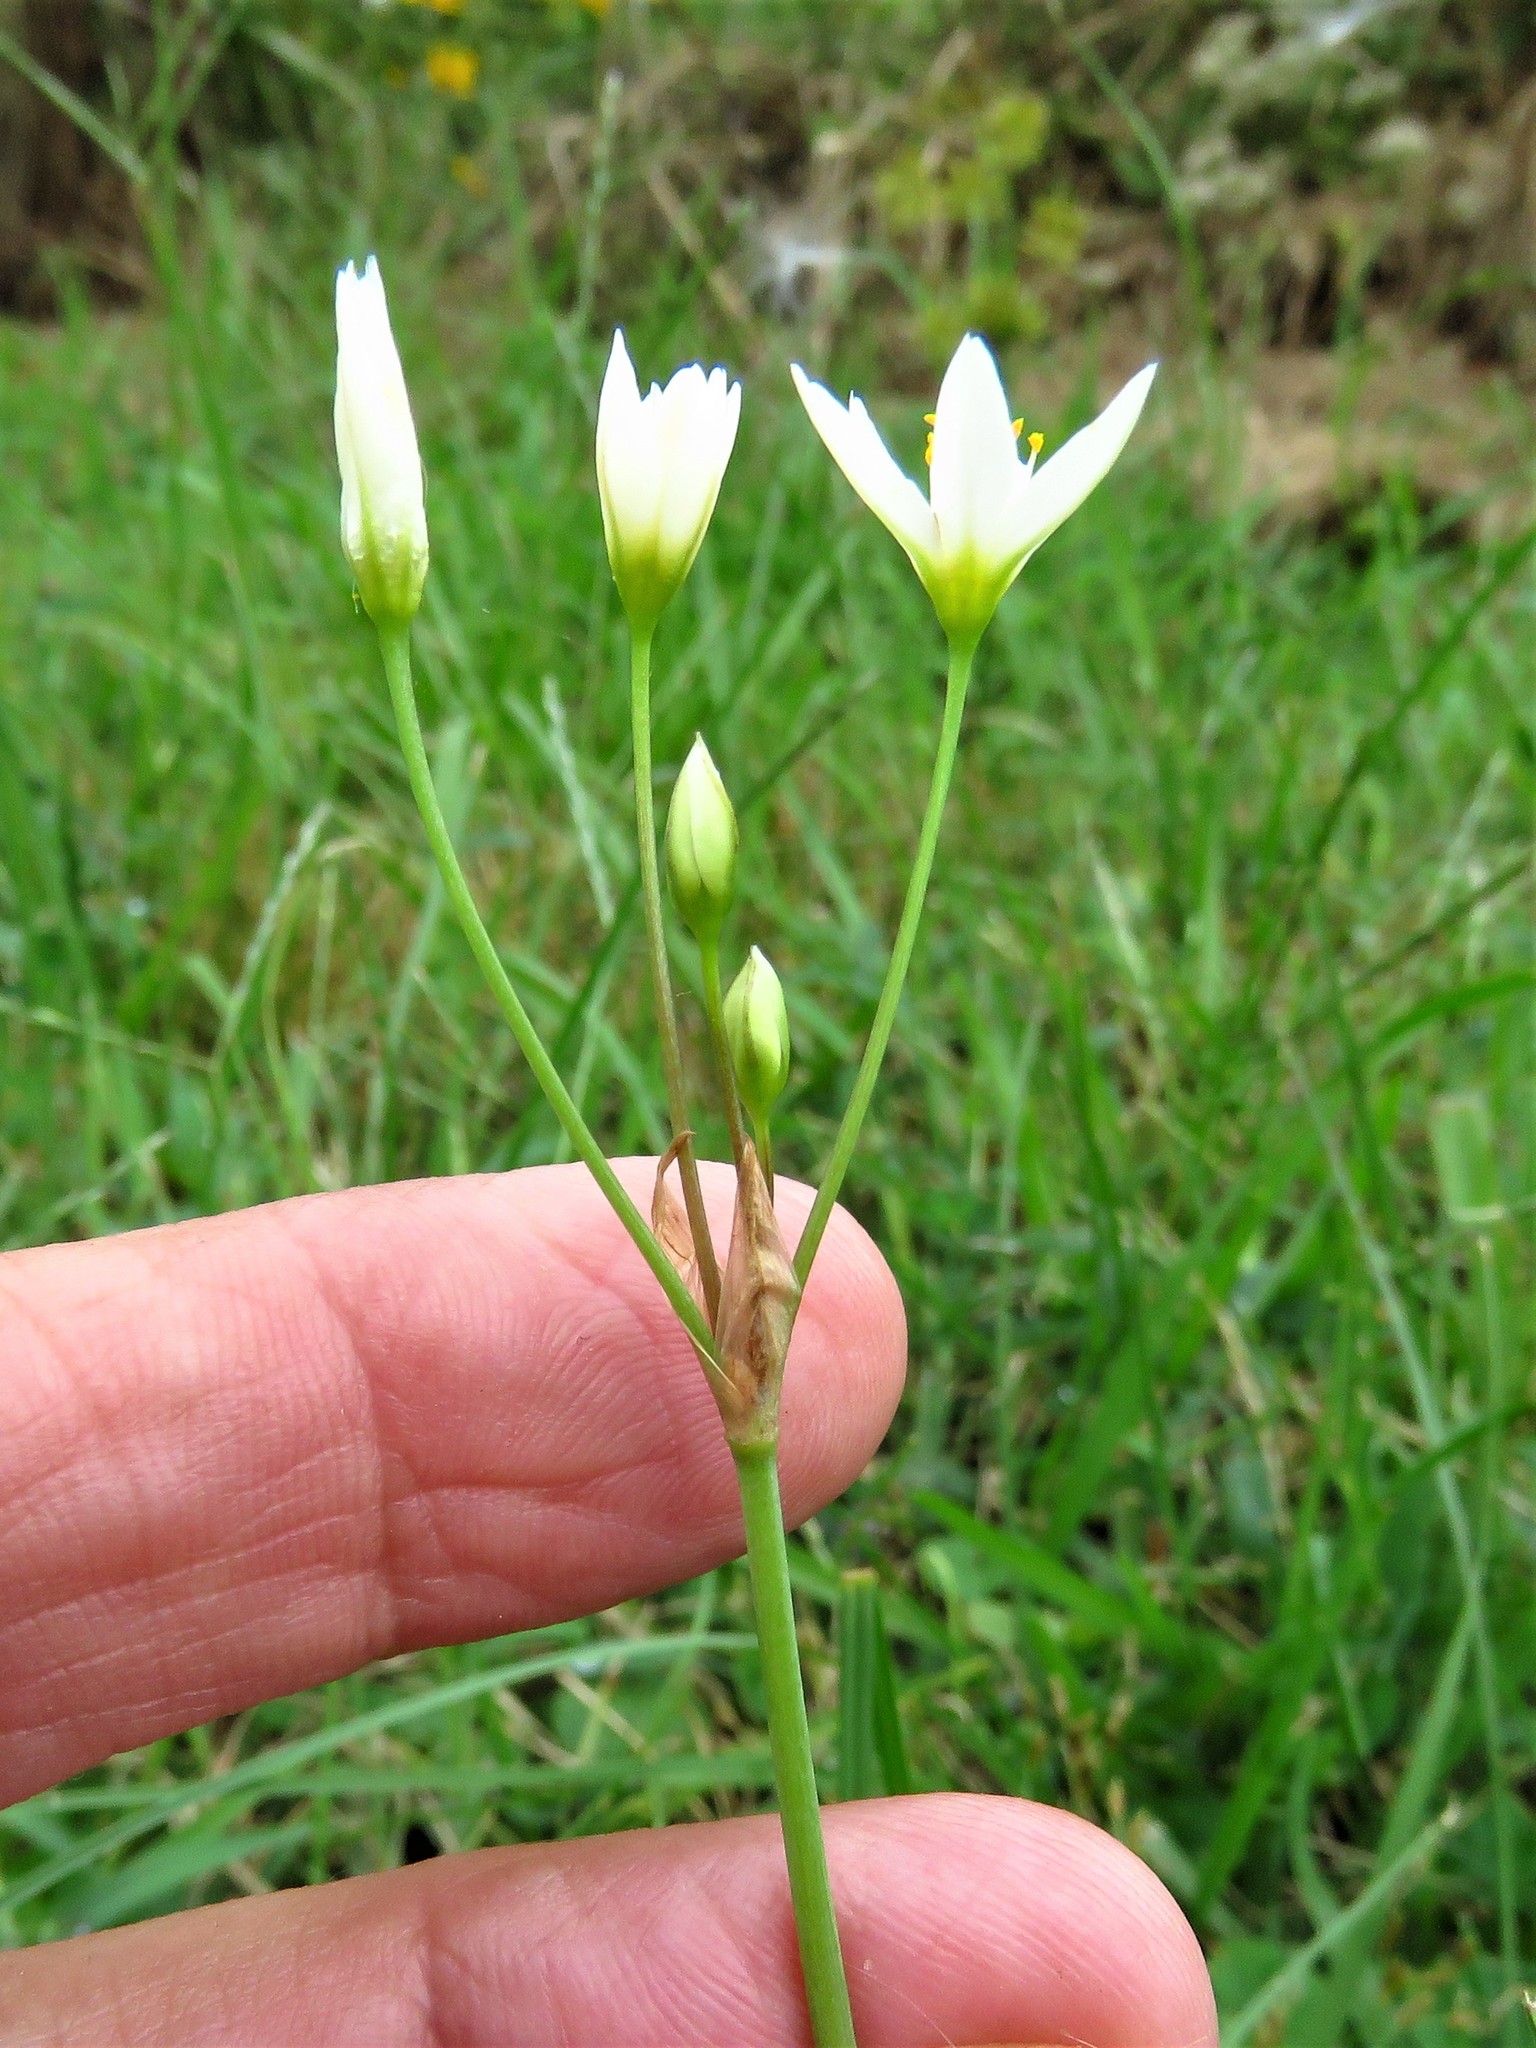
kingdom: Plantae
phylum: Tracheophyta
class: Liliopsida
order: Asparagales
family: Amaryllidaceae
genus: Nothoscordum
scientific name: Nothoscordum bivalve
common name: Crow-poison
